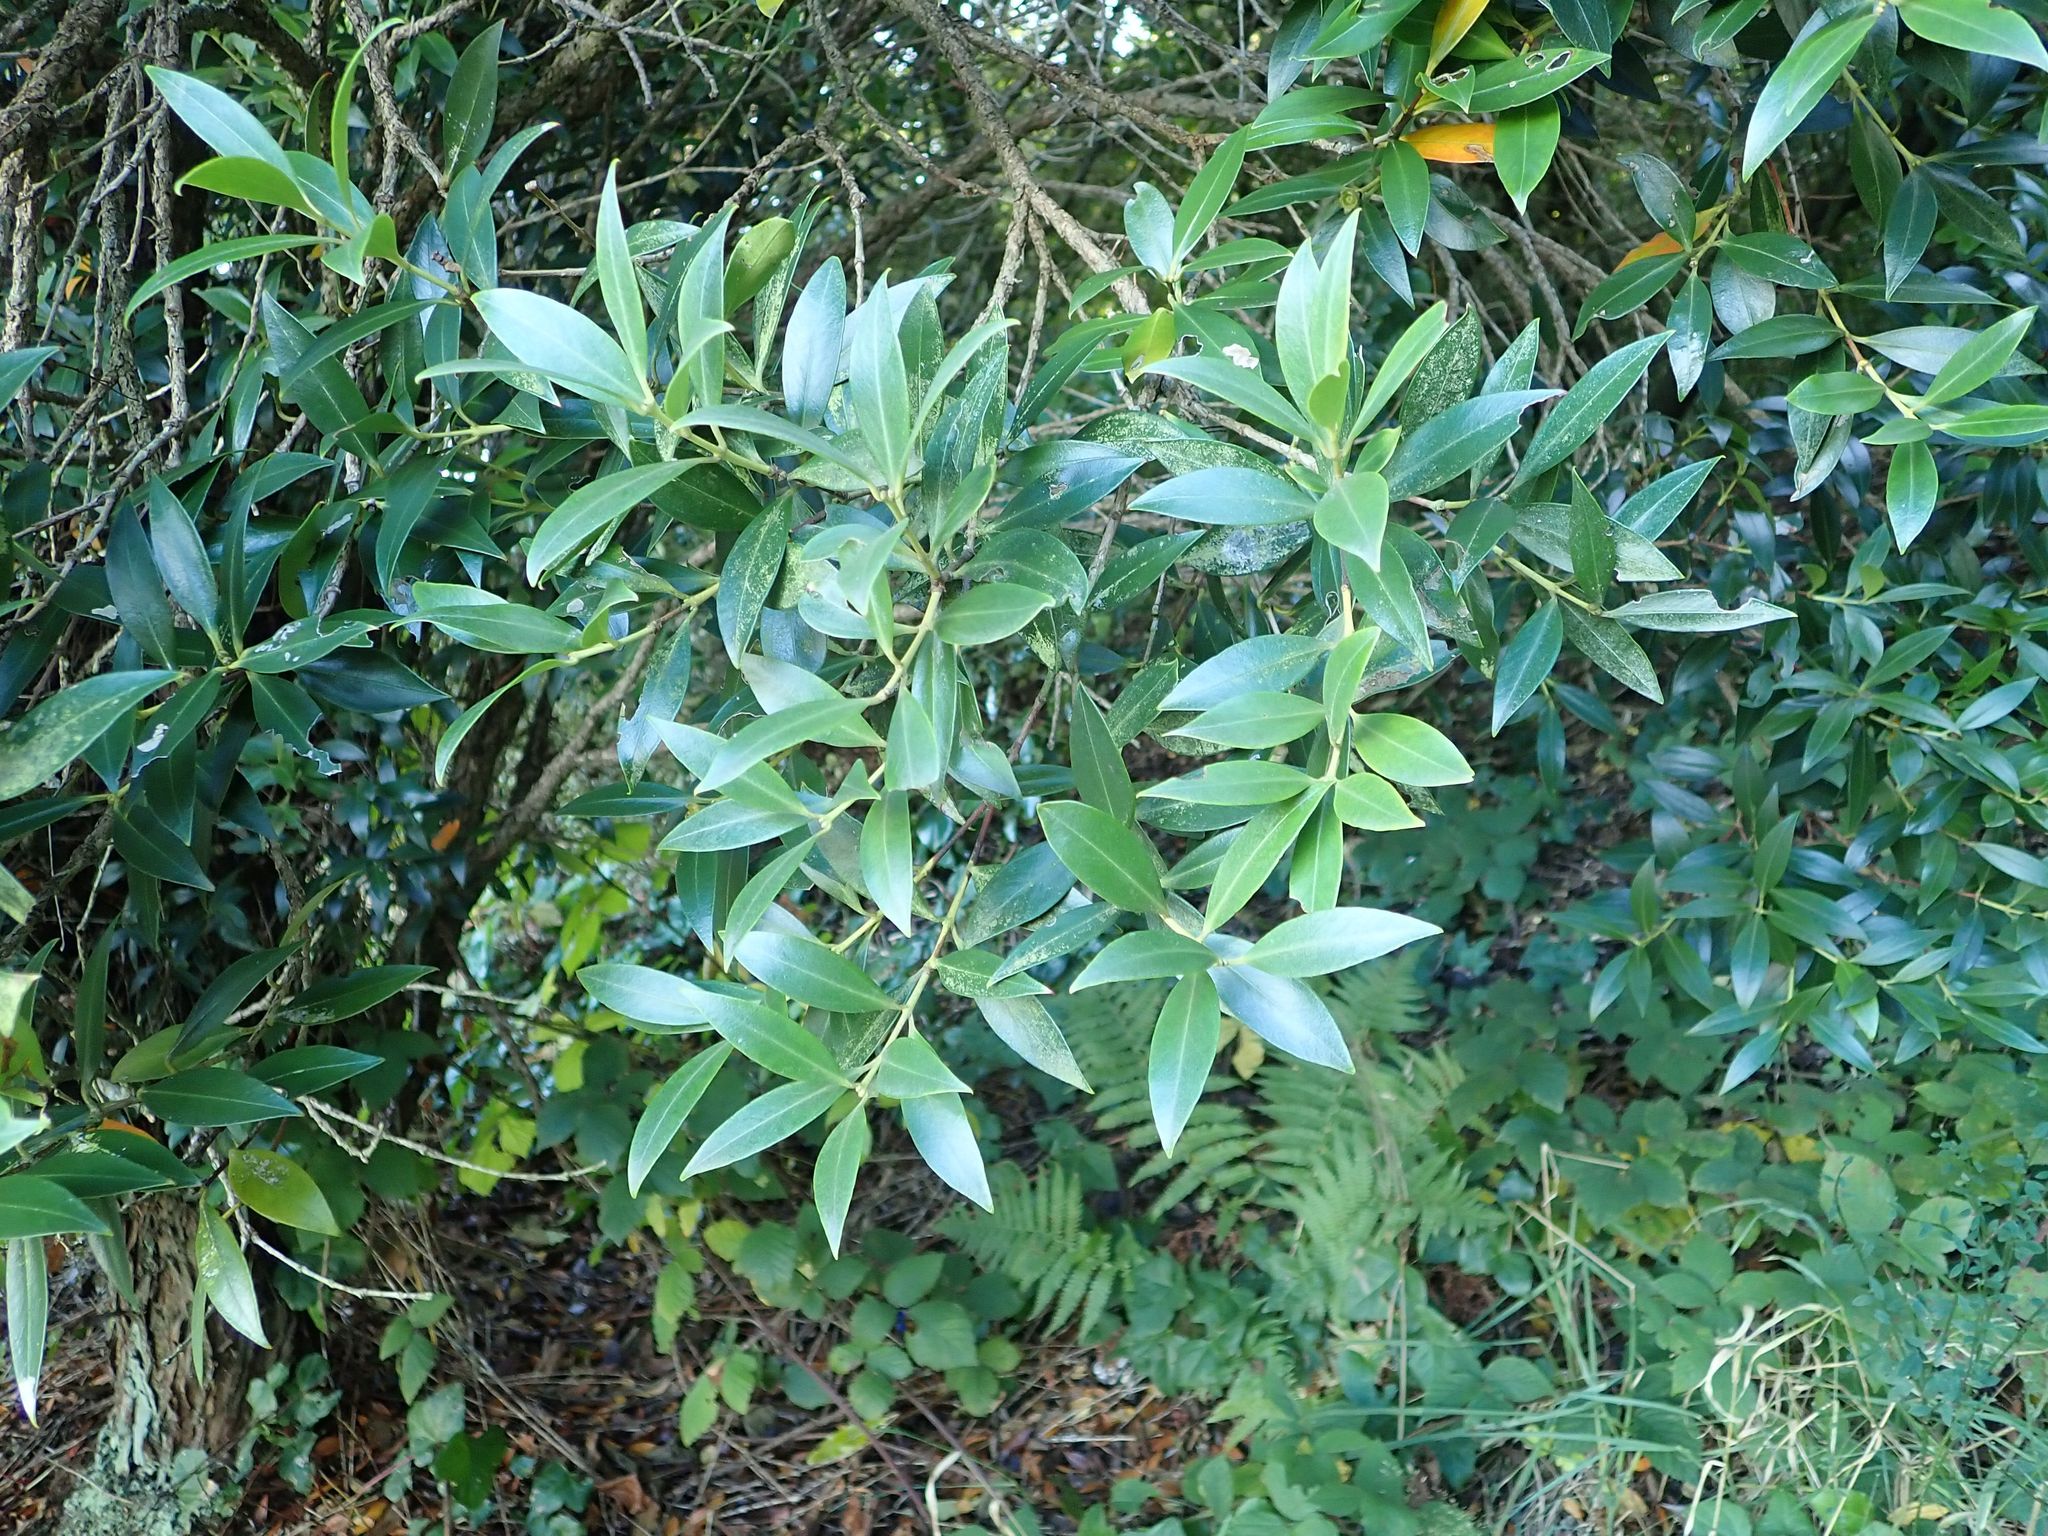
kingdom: Plantae
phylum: Tracheophyta
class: Magnoliopsida
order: Myrtales
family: Myrtaceae
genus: Metrosideros
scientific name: Metrosideros umbellata
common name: Southern rata
